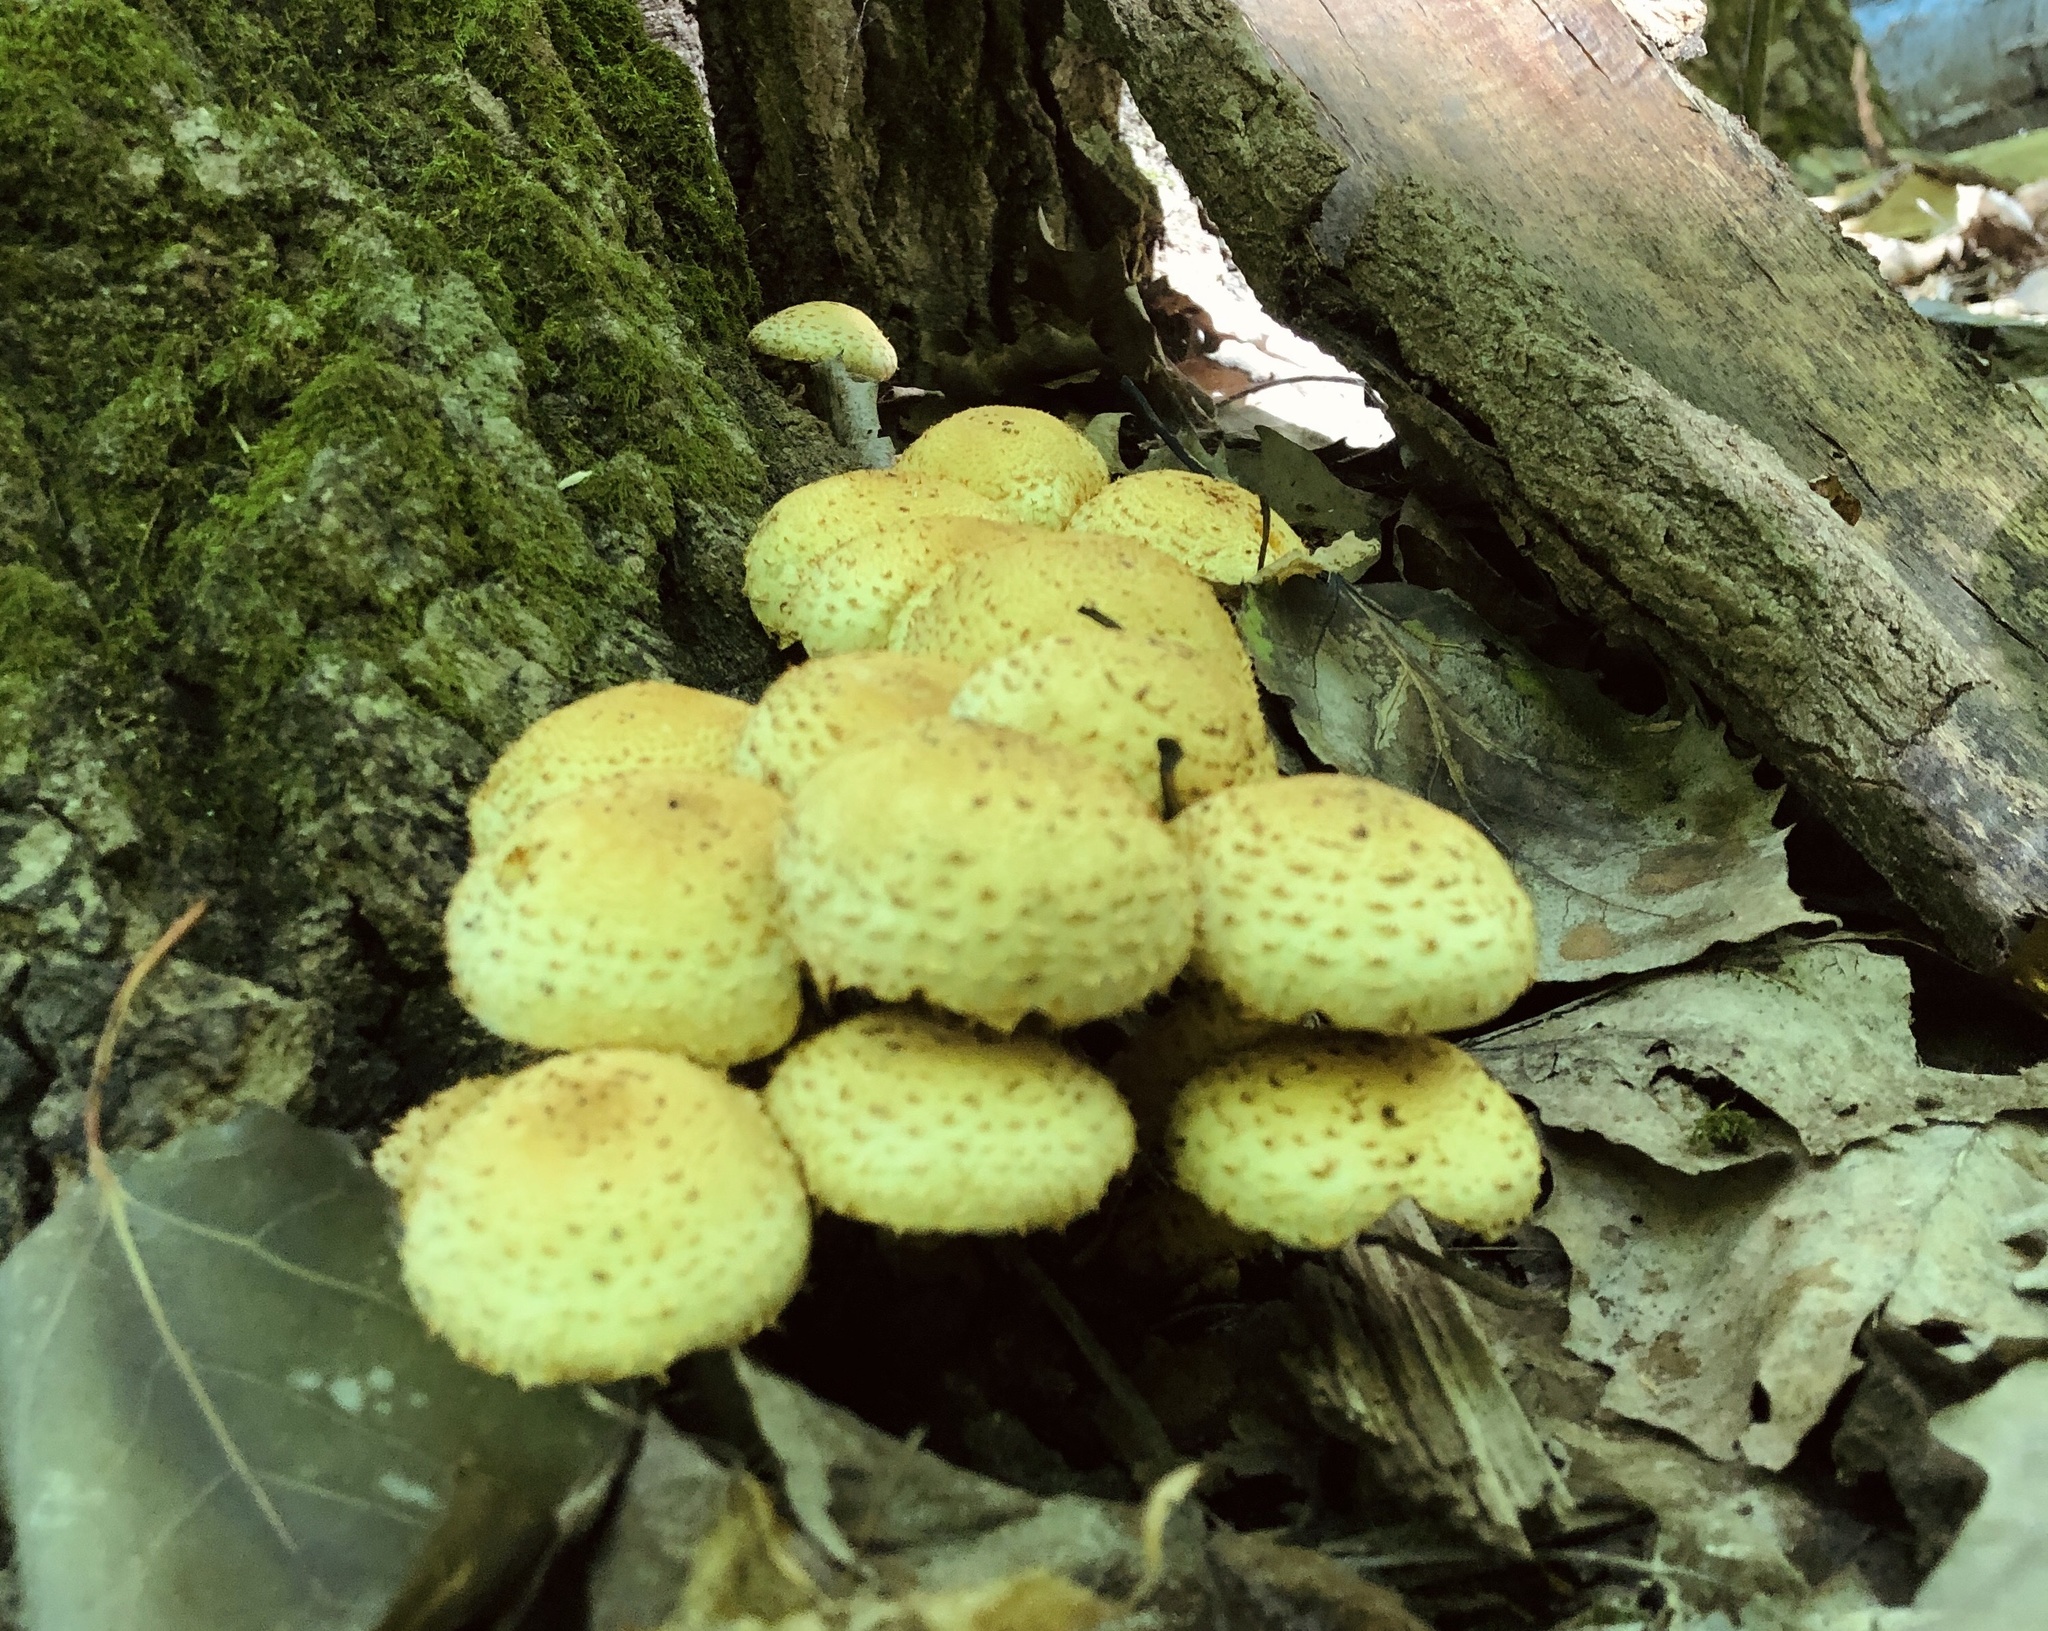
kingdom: Fungi
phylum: Basidiomycota
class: Agaricomycetes
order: Agaricales
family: Strophariaceae
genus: Pholiota
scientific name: Pholiota squarrosa
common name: Shaggy pholiota
